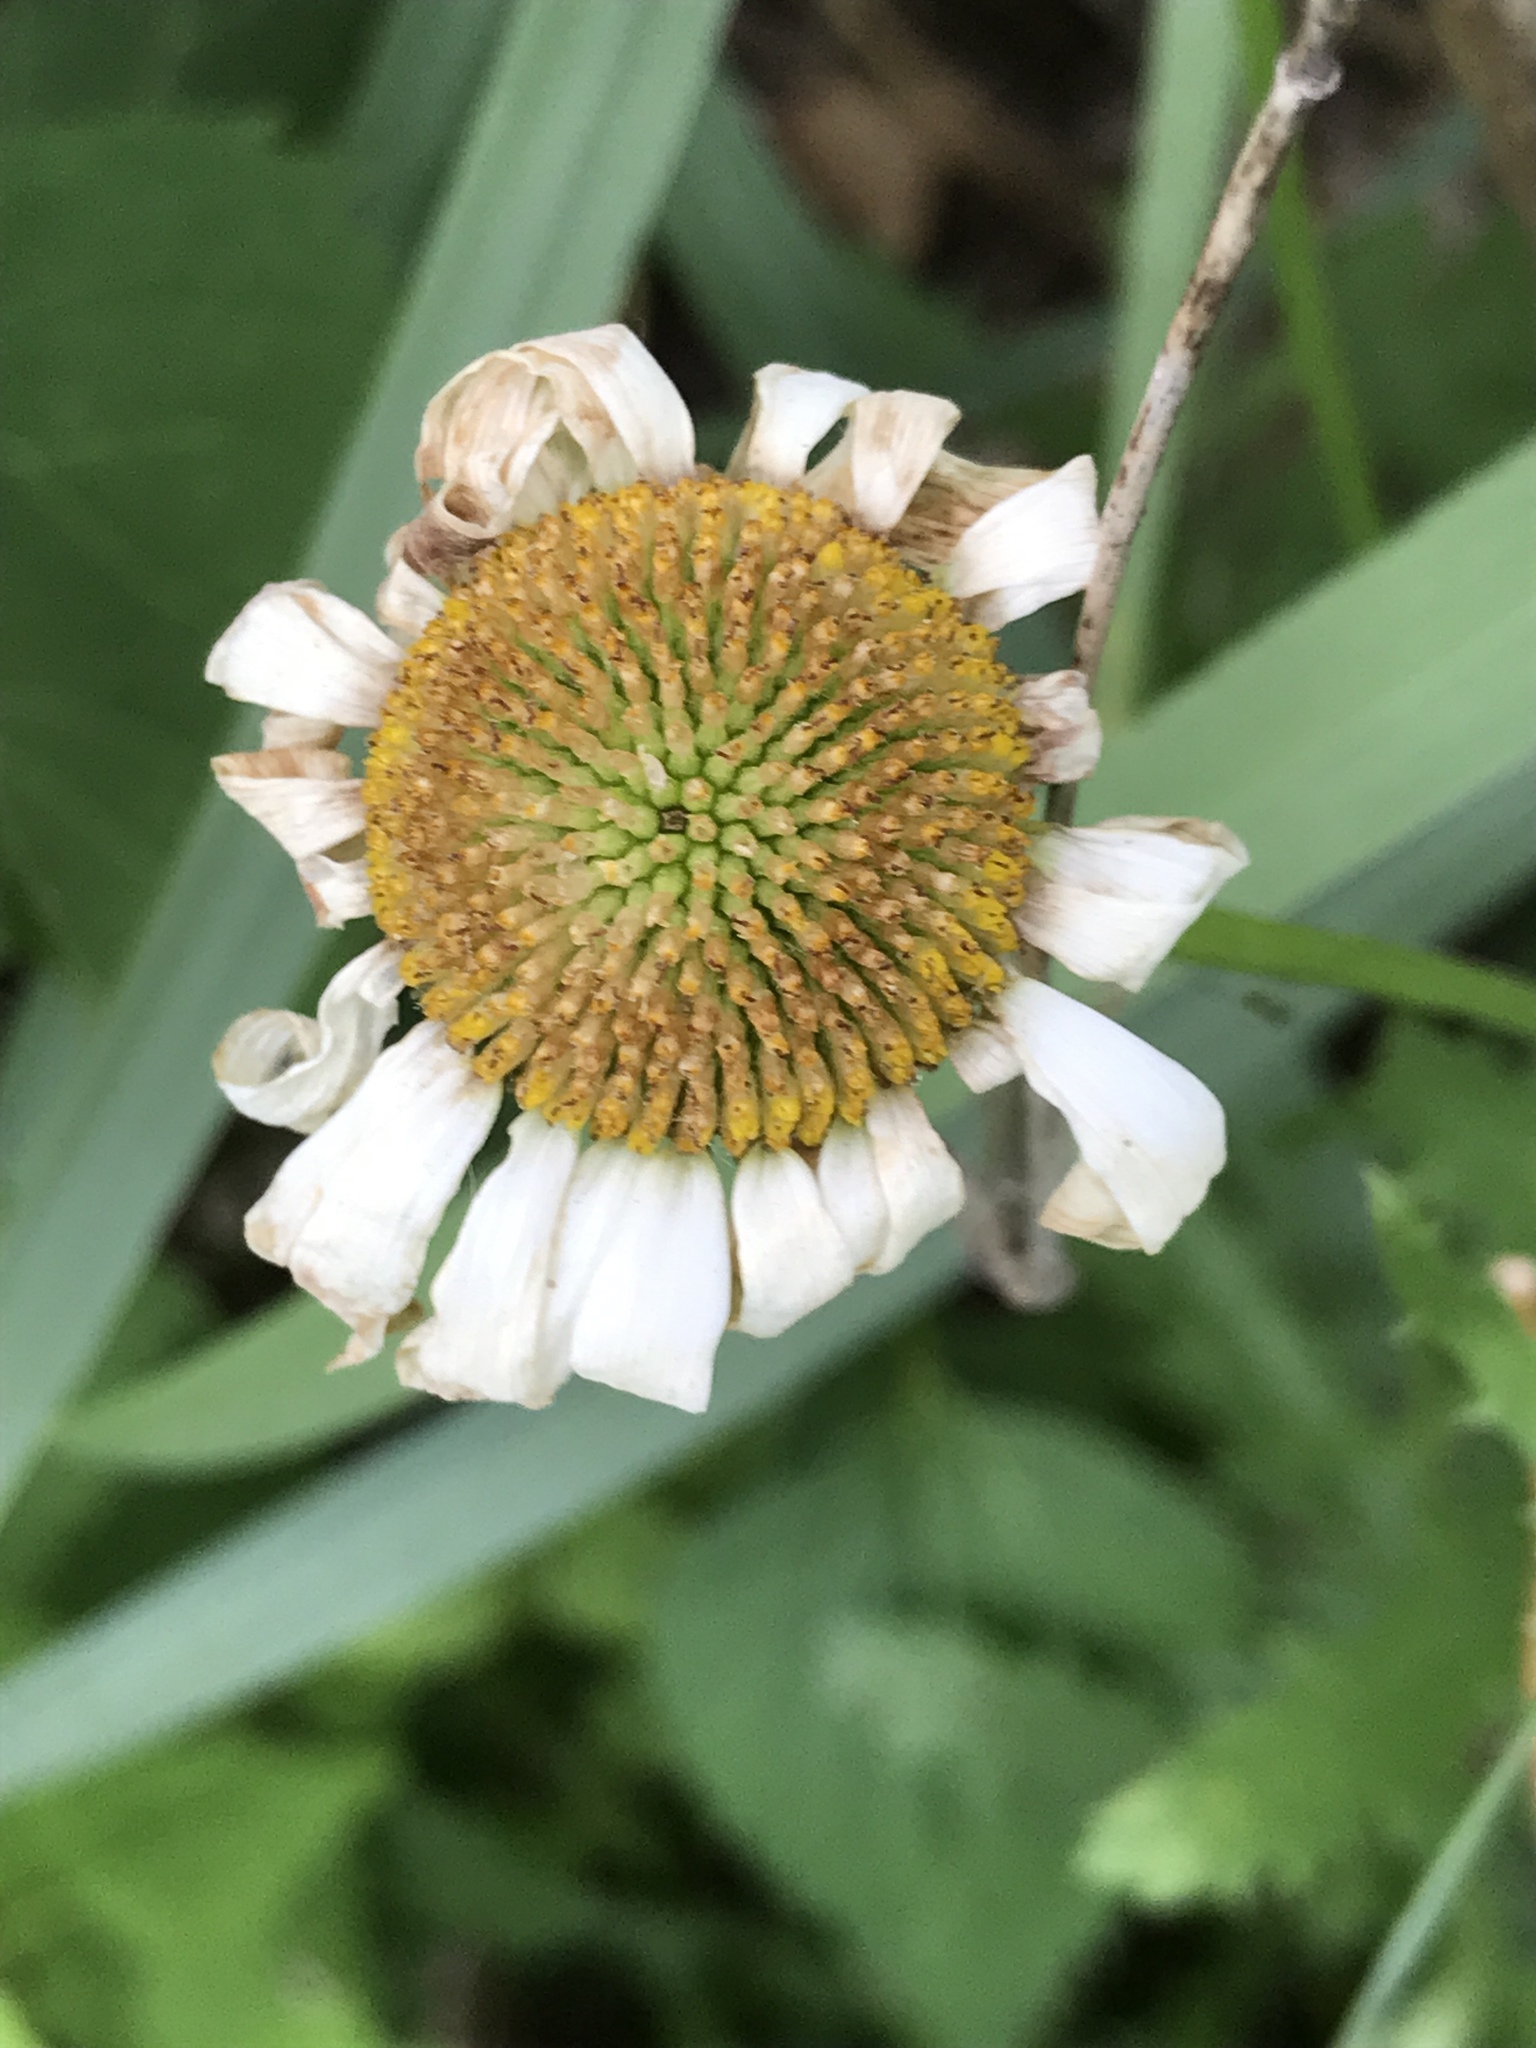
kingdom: Plantae
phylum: Tracheophyta
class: Magnoliopsida
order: Asterales
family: Asteraceae
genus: Leucanthemum
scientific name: Leucanthemum vulgare
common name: Oxeye daisy
